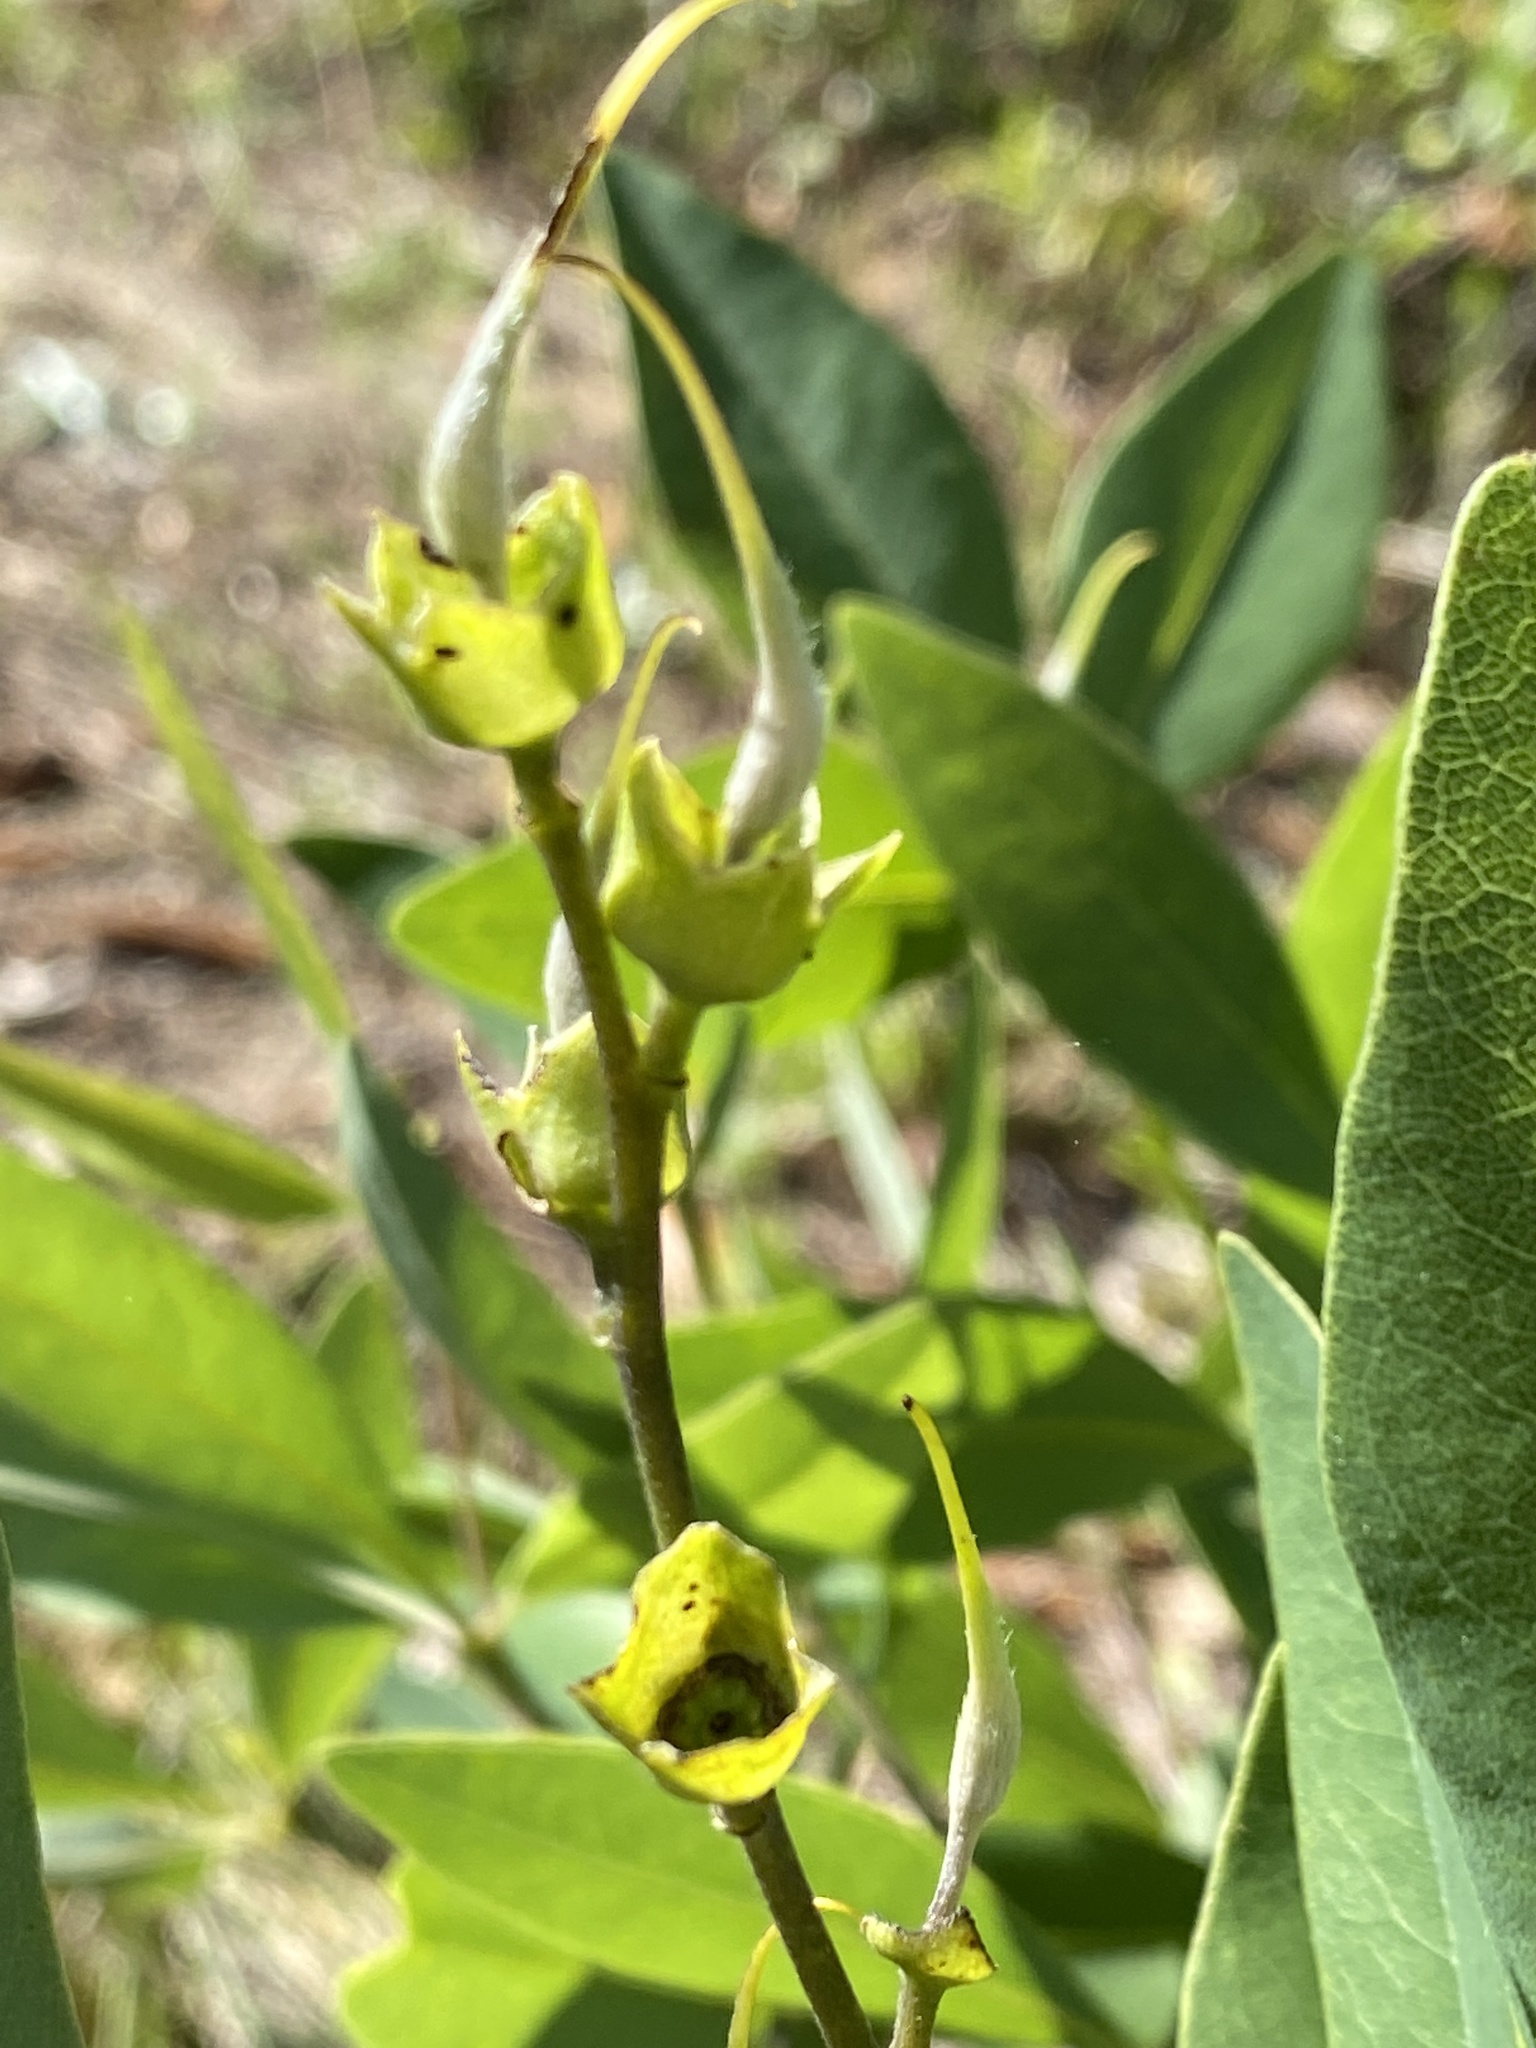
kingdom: Plantae
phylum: Tracheophyta
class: Magnoliopsida
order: Fabales
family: Fabaceae
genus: Baptisia
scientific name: Baptisia lanceolata
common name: Gopherweed
